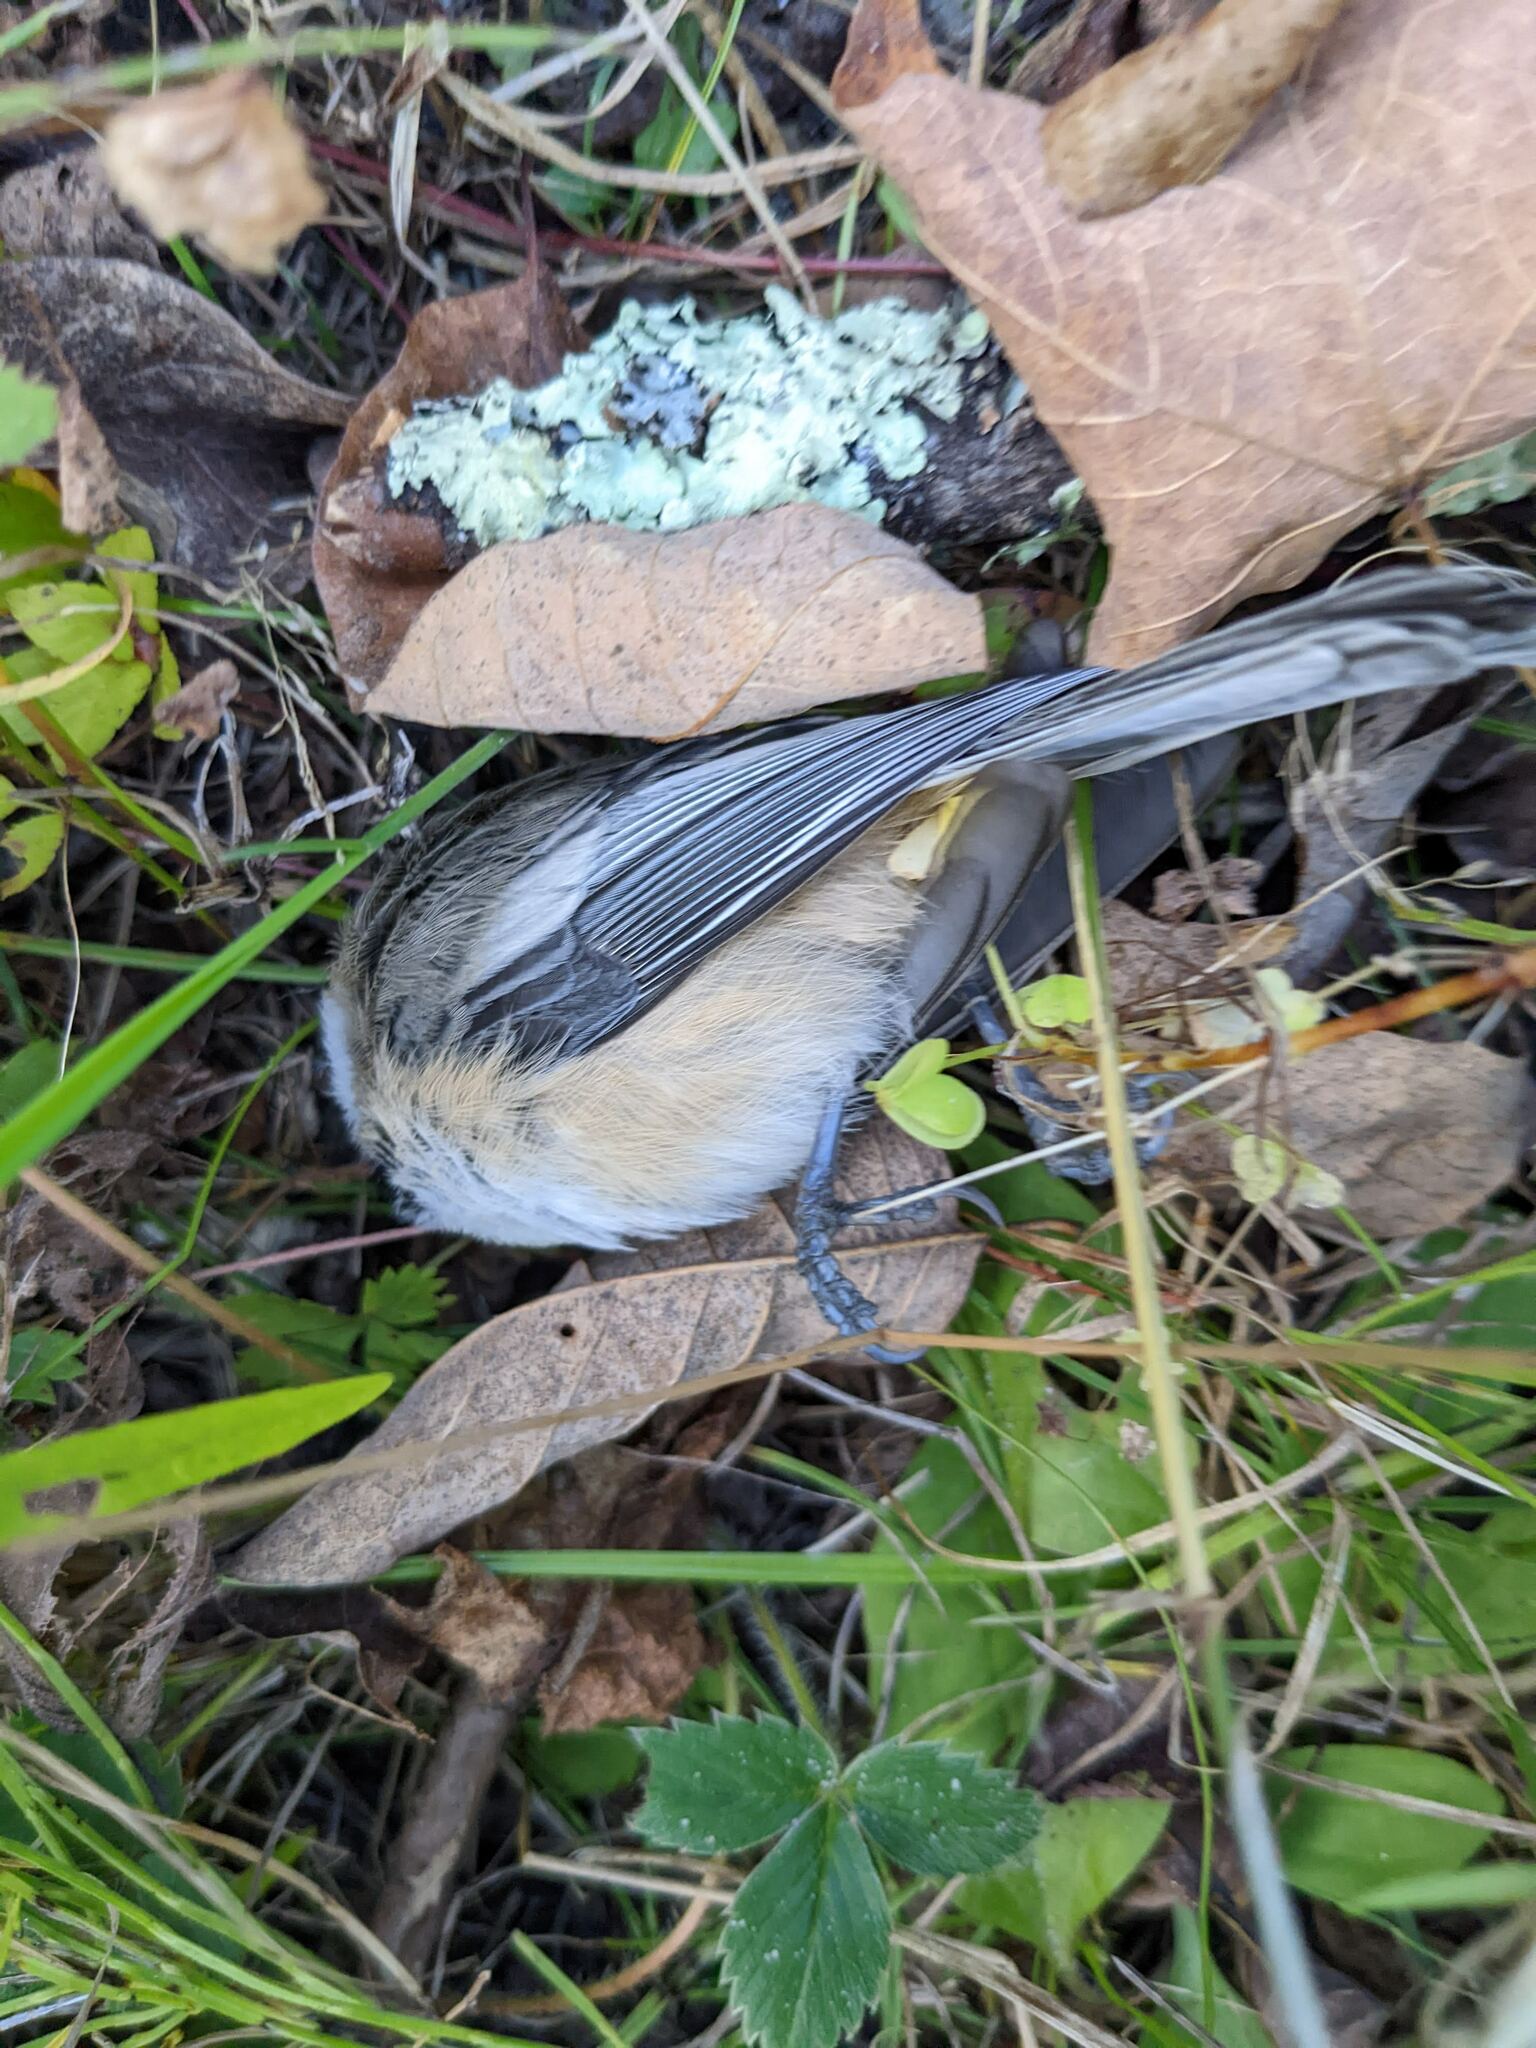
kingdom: Animalia
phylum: Chordata
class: Aves
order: Passeriformes
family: Paridae
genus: Poecile
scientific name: Poecile atricapillus
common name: Black-capped chickadee
